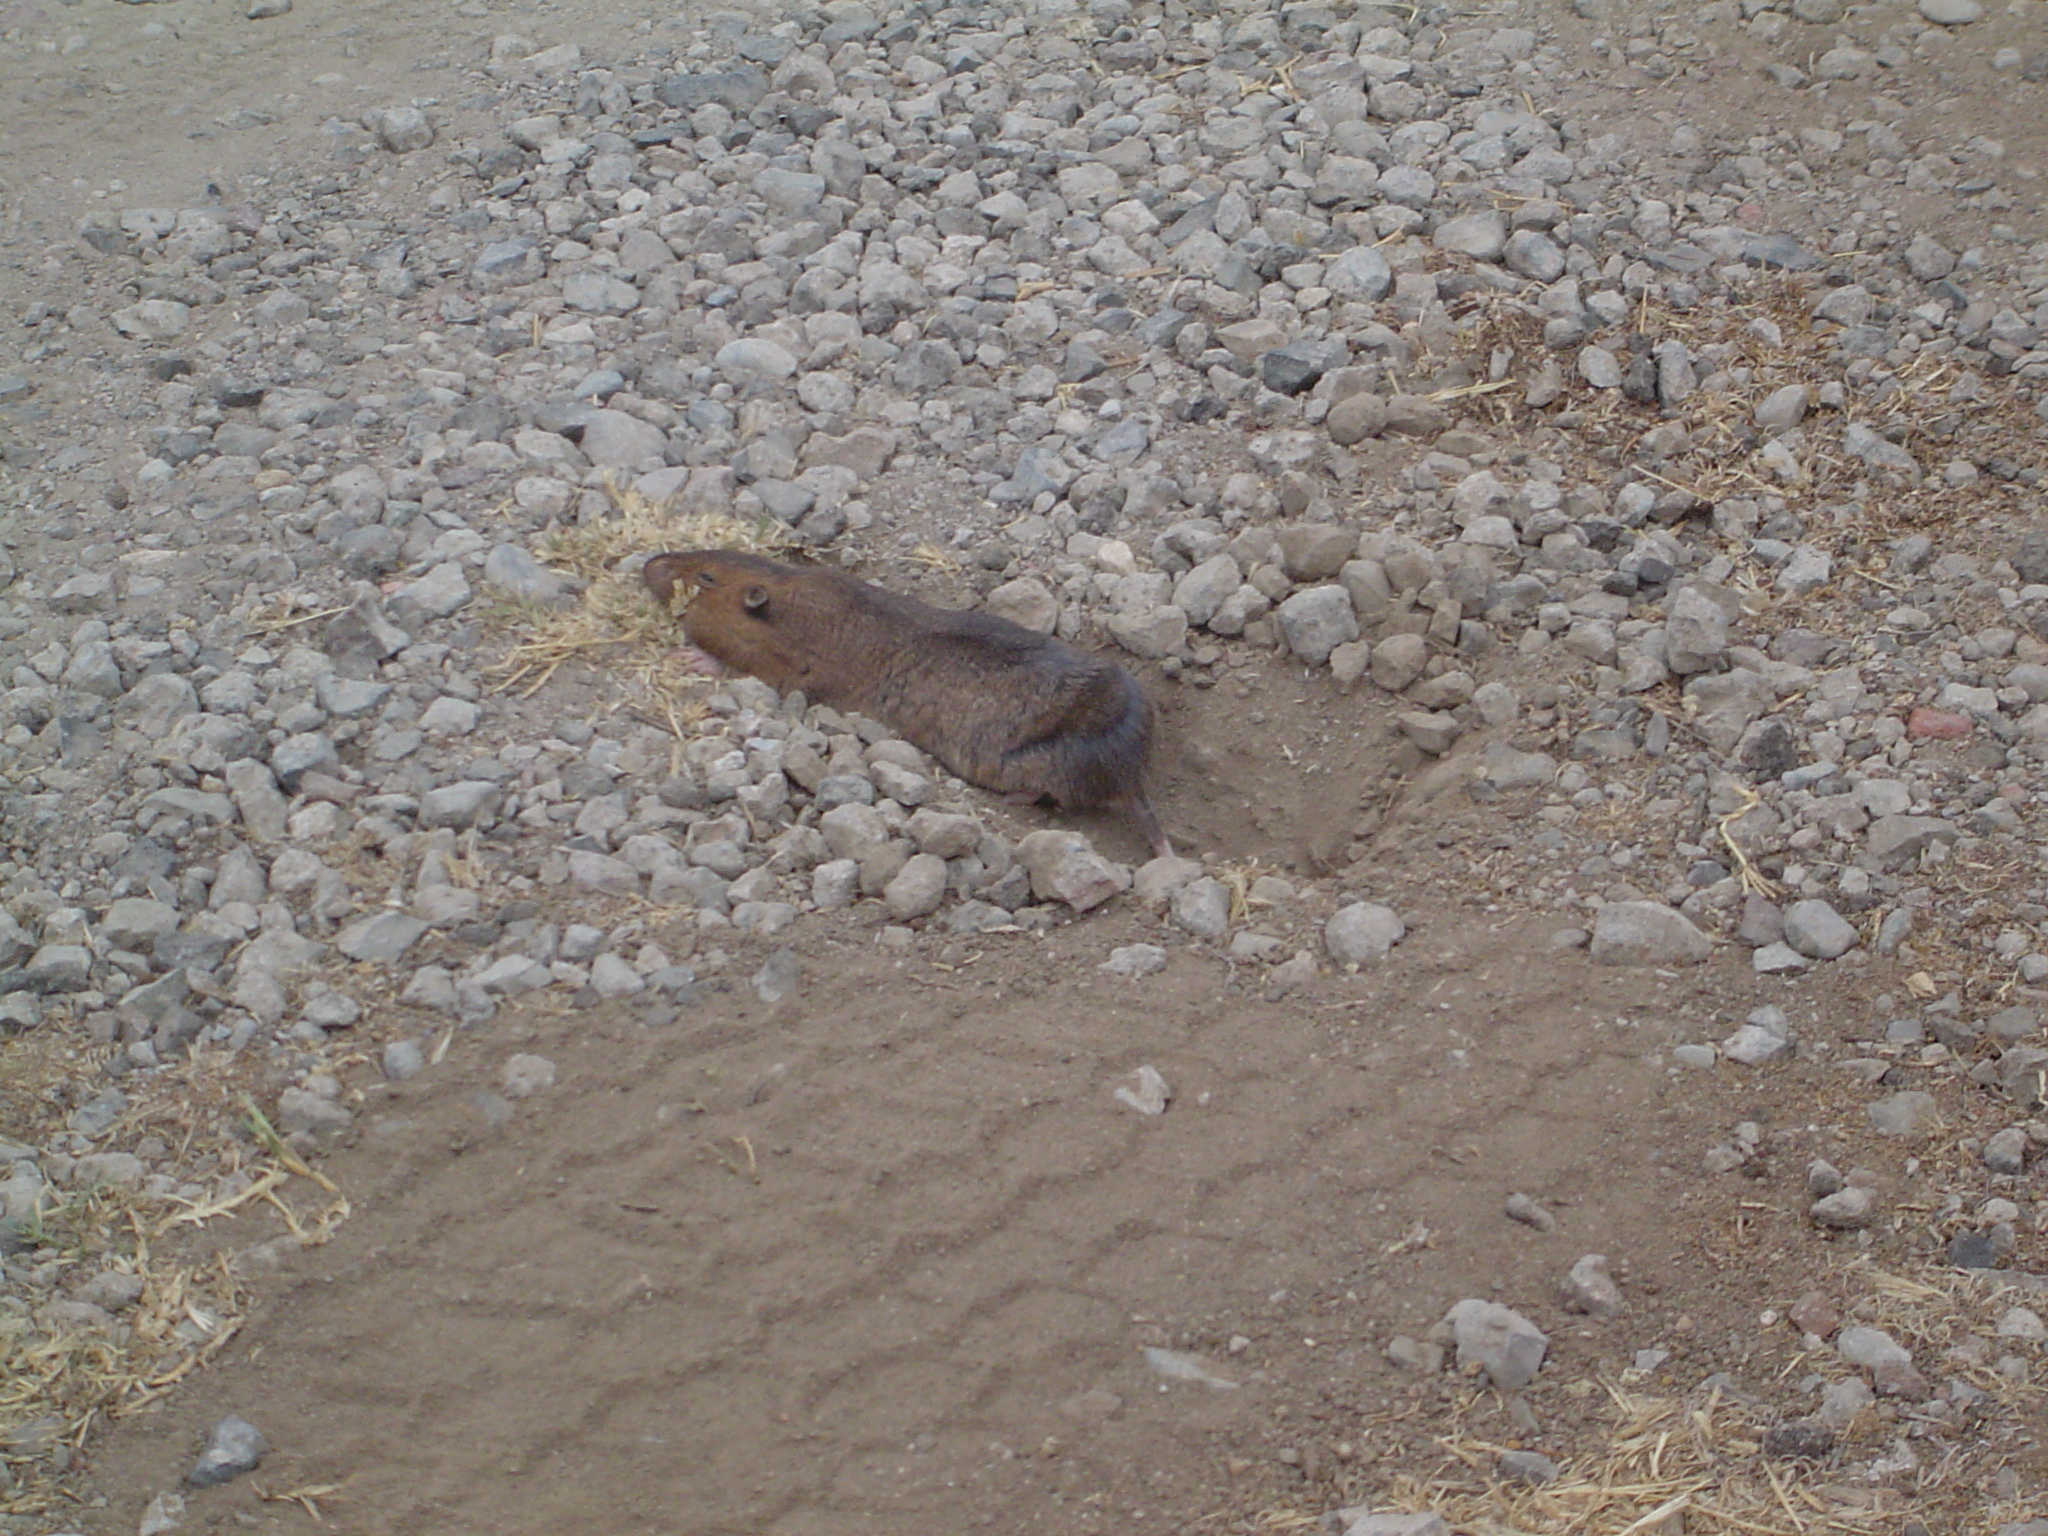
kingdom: Animalia
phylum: Chordata
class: Mammalia
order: Rodentia
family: Geomyidae
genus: Thomomys
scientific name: Thomomys bottae
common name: Botta's pocket gopher
